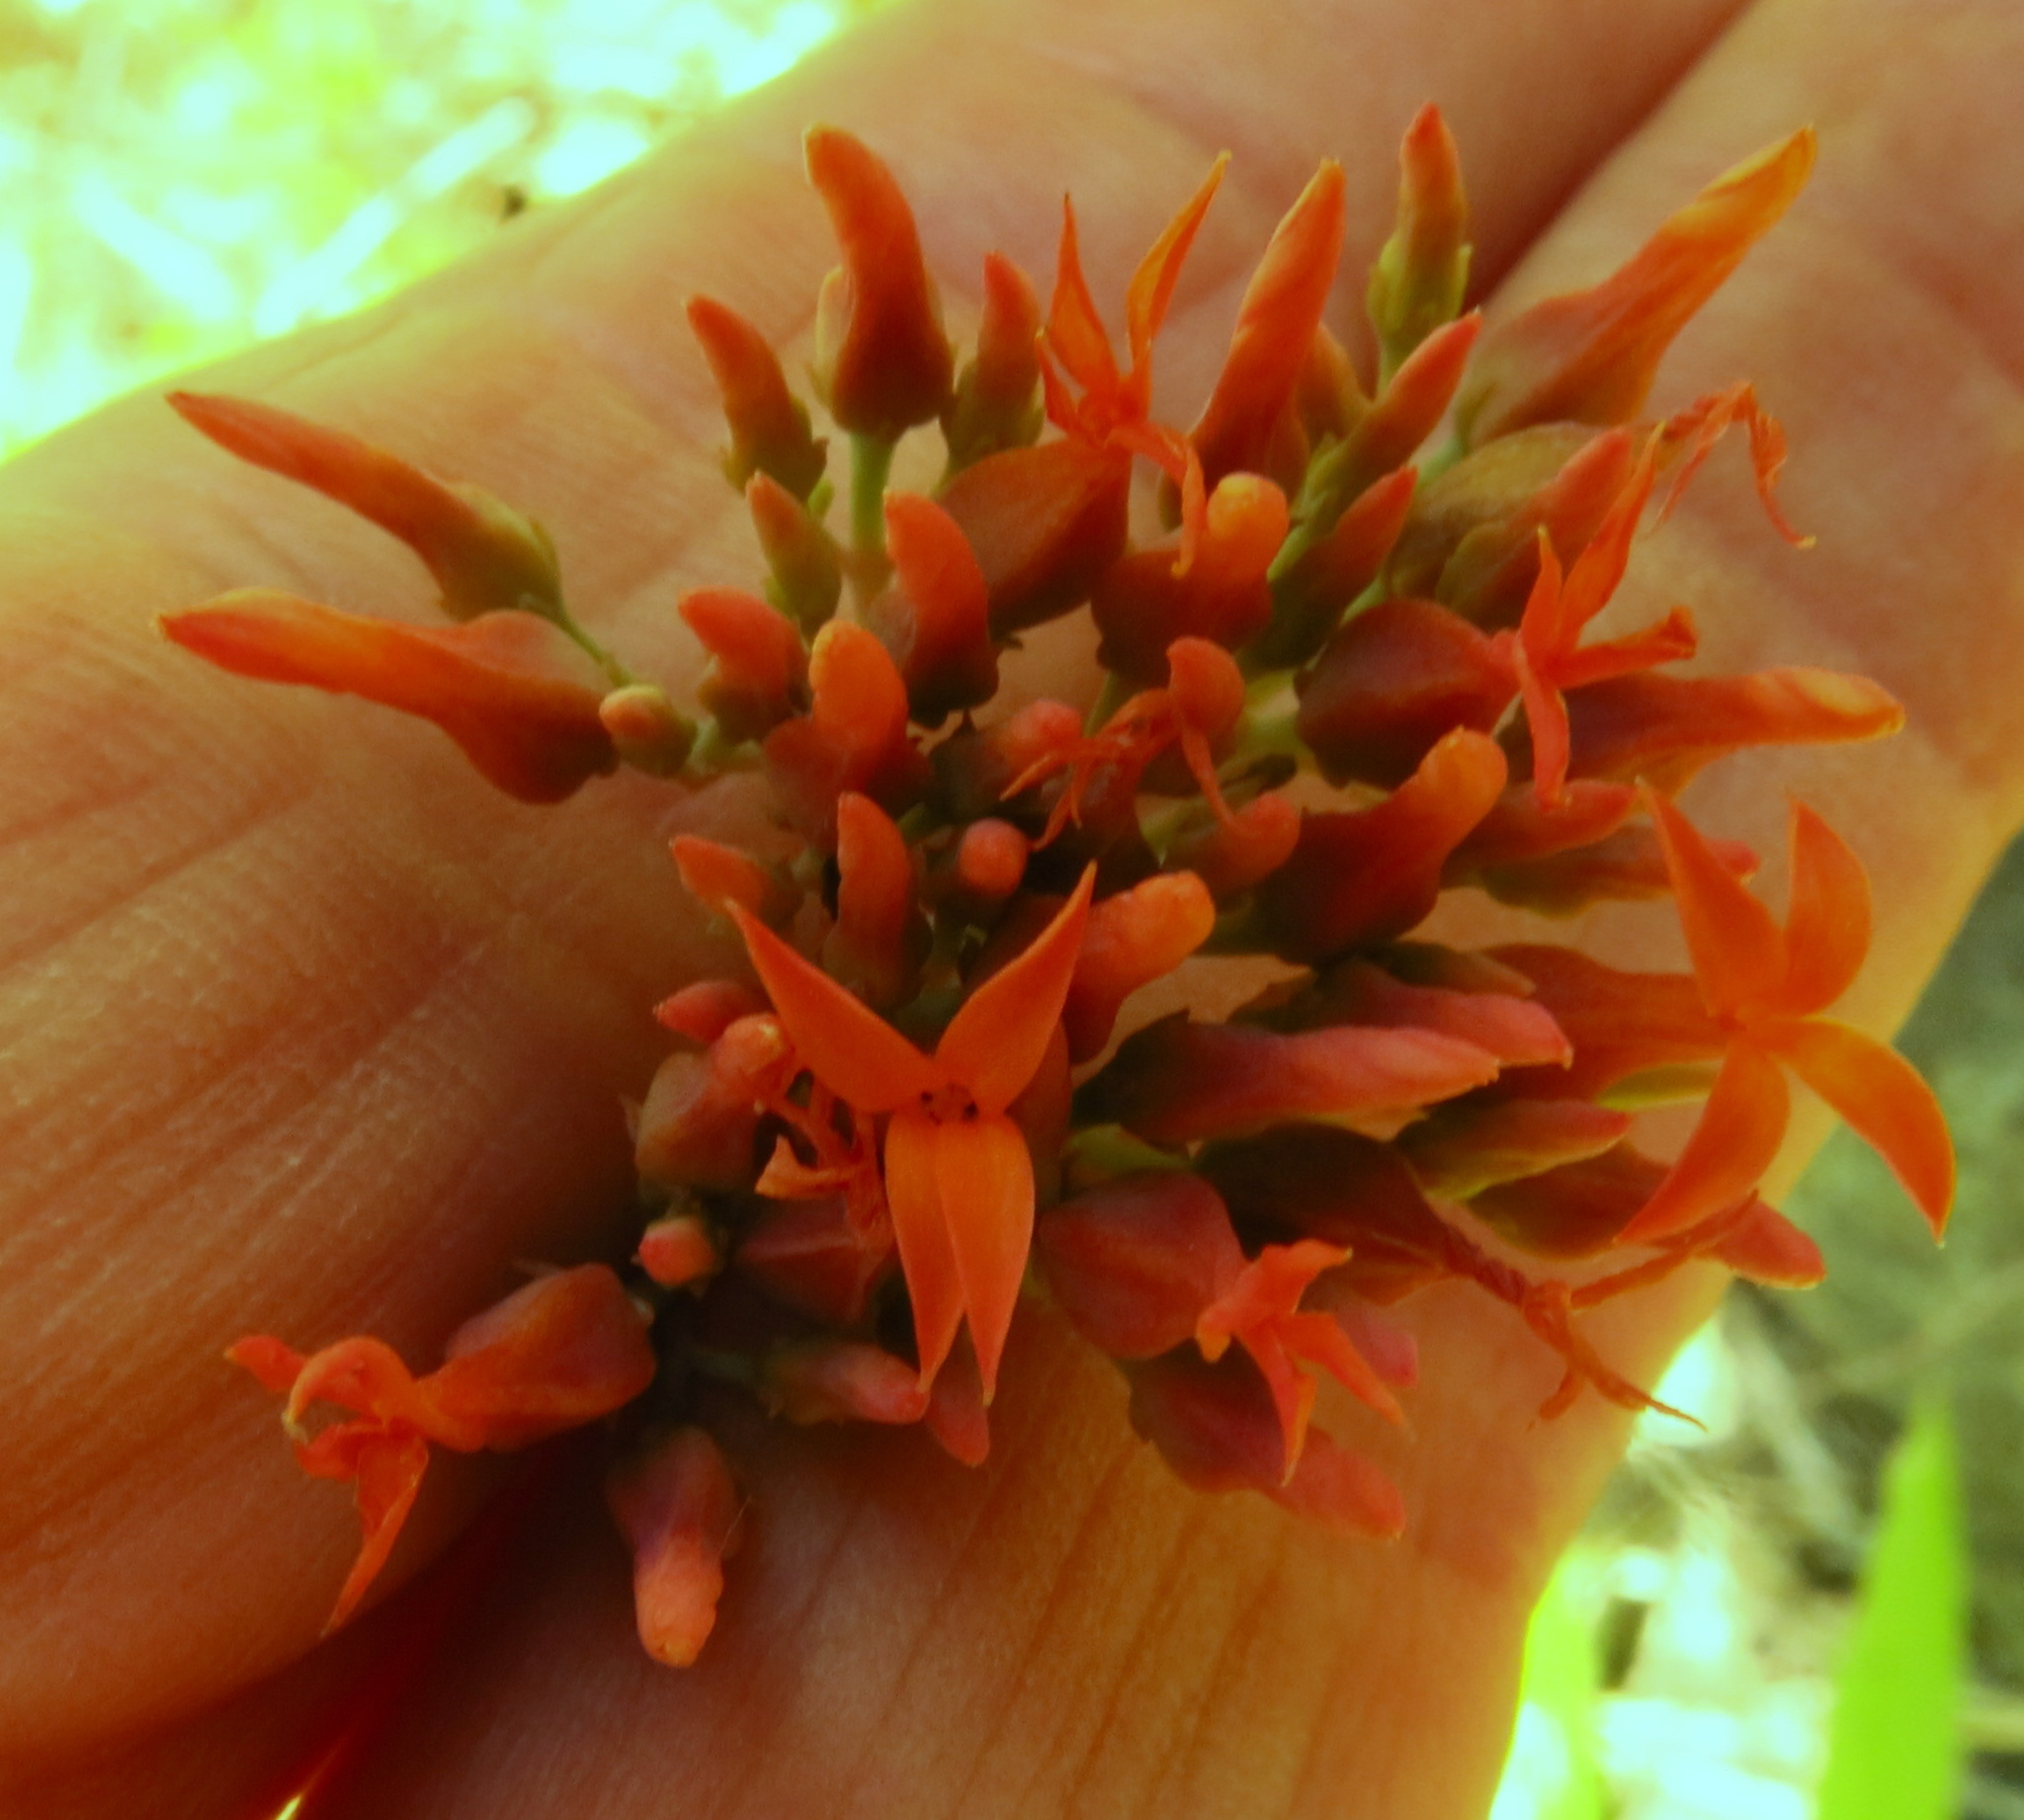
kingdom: Plantae
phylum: Tracheophyta
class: Magnoliopsida
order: Saxifragales
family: Crassulaceae
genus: Kalanchoe
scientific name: Kalanchoe rotundifolia
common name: Common kalanchoe
